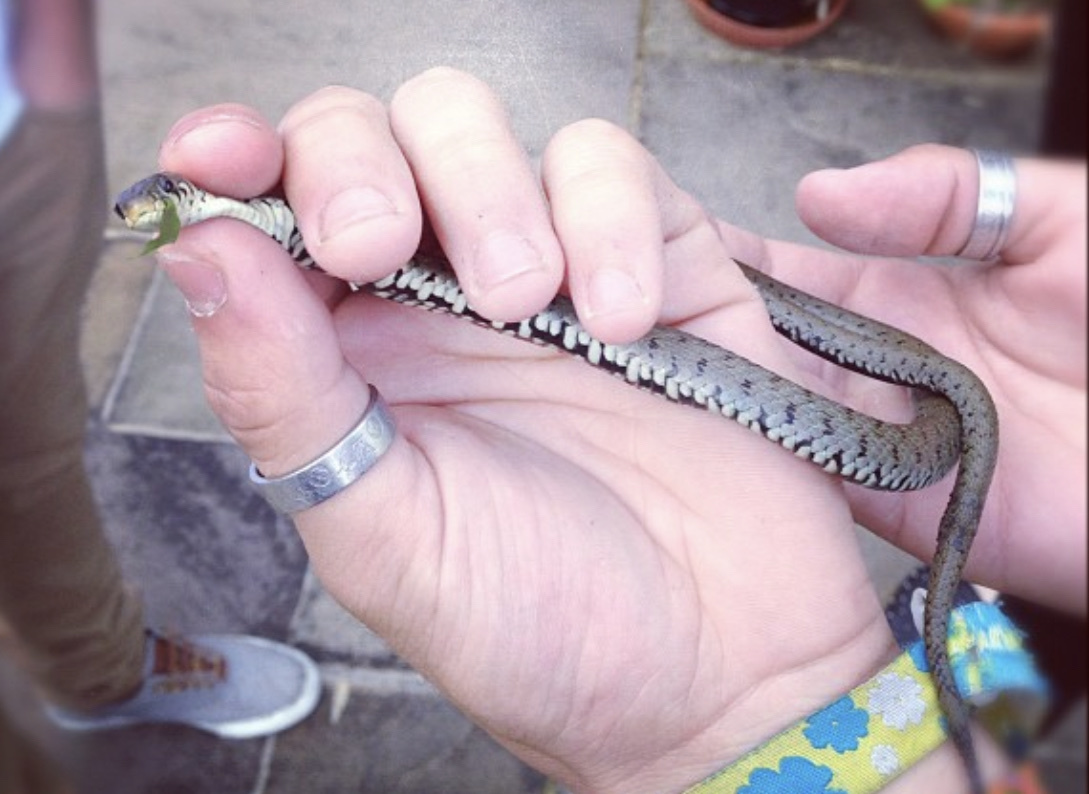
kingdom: Animalia
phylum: Chordata
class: Squamata
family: Colubridae
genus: Natrix
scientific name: Natrix helvetica
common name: Banded grass snake
